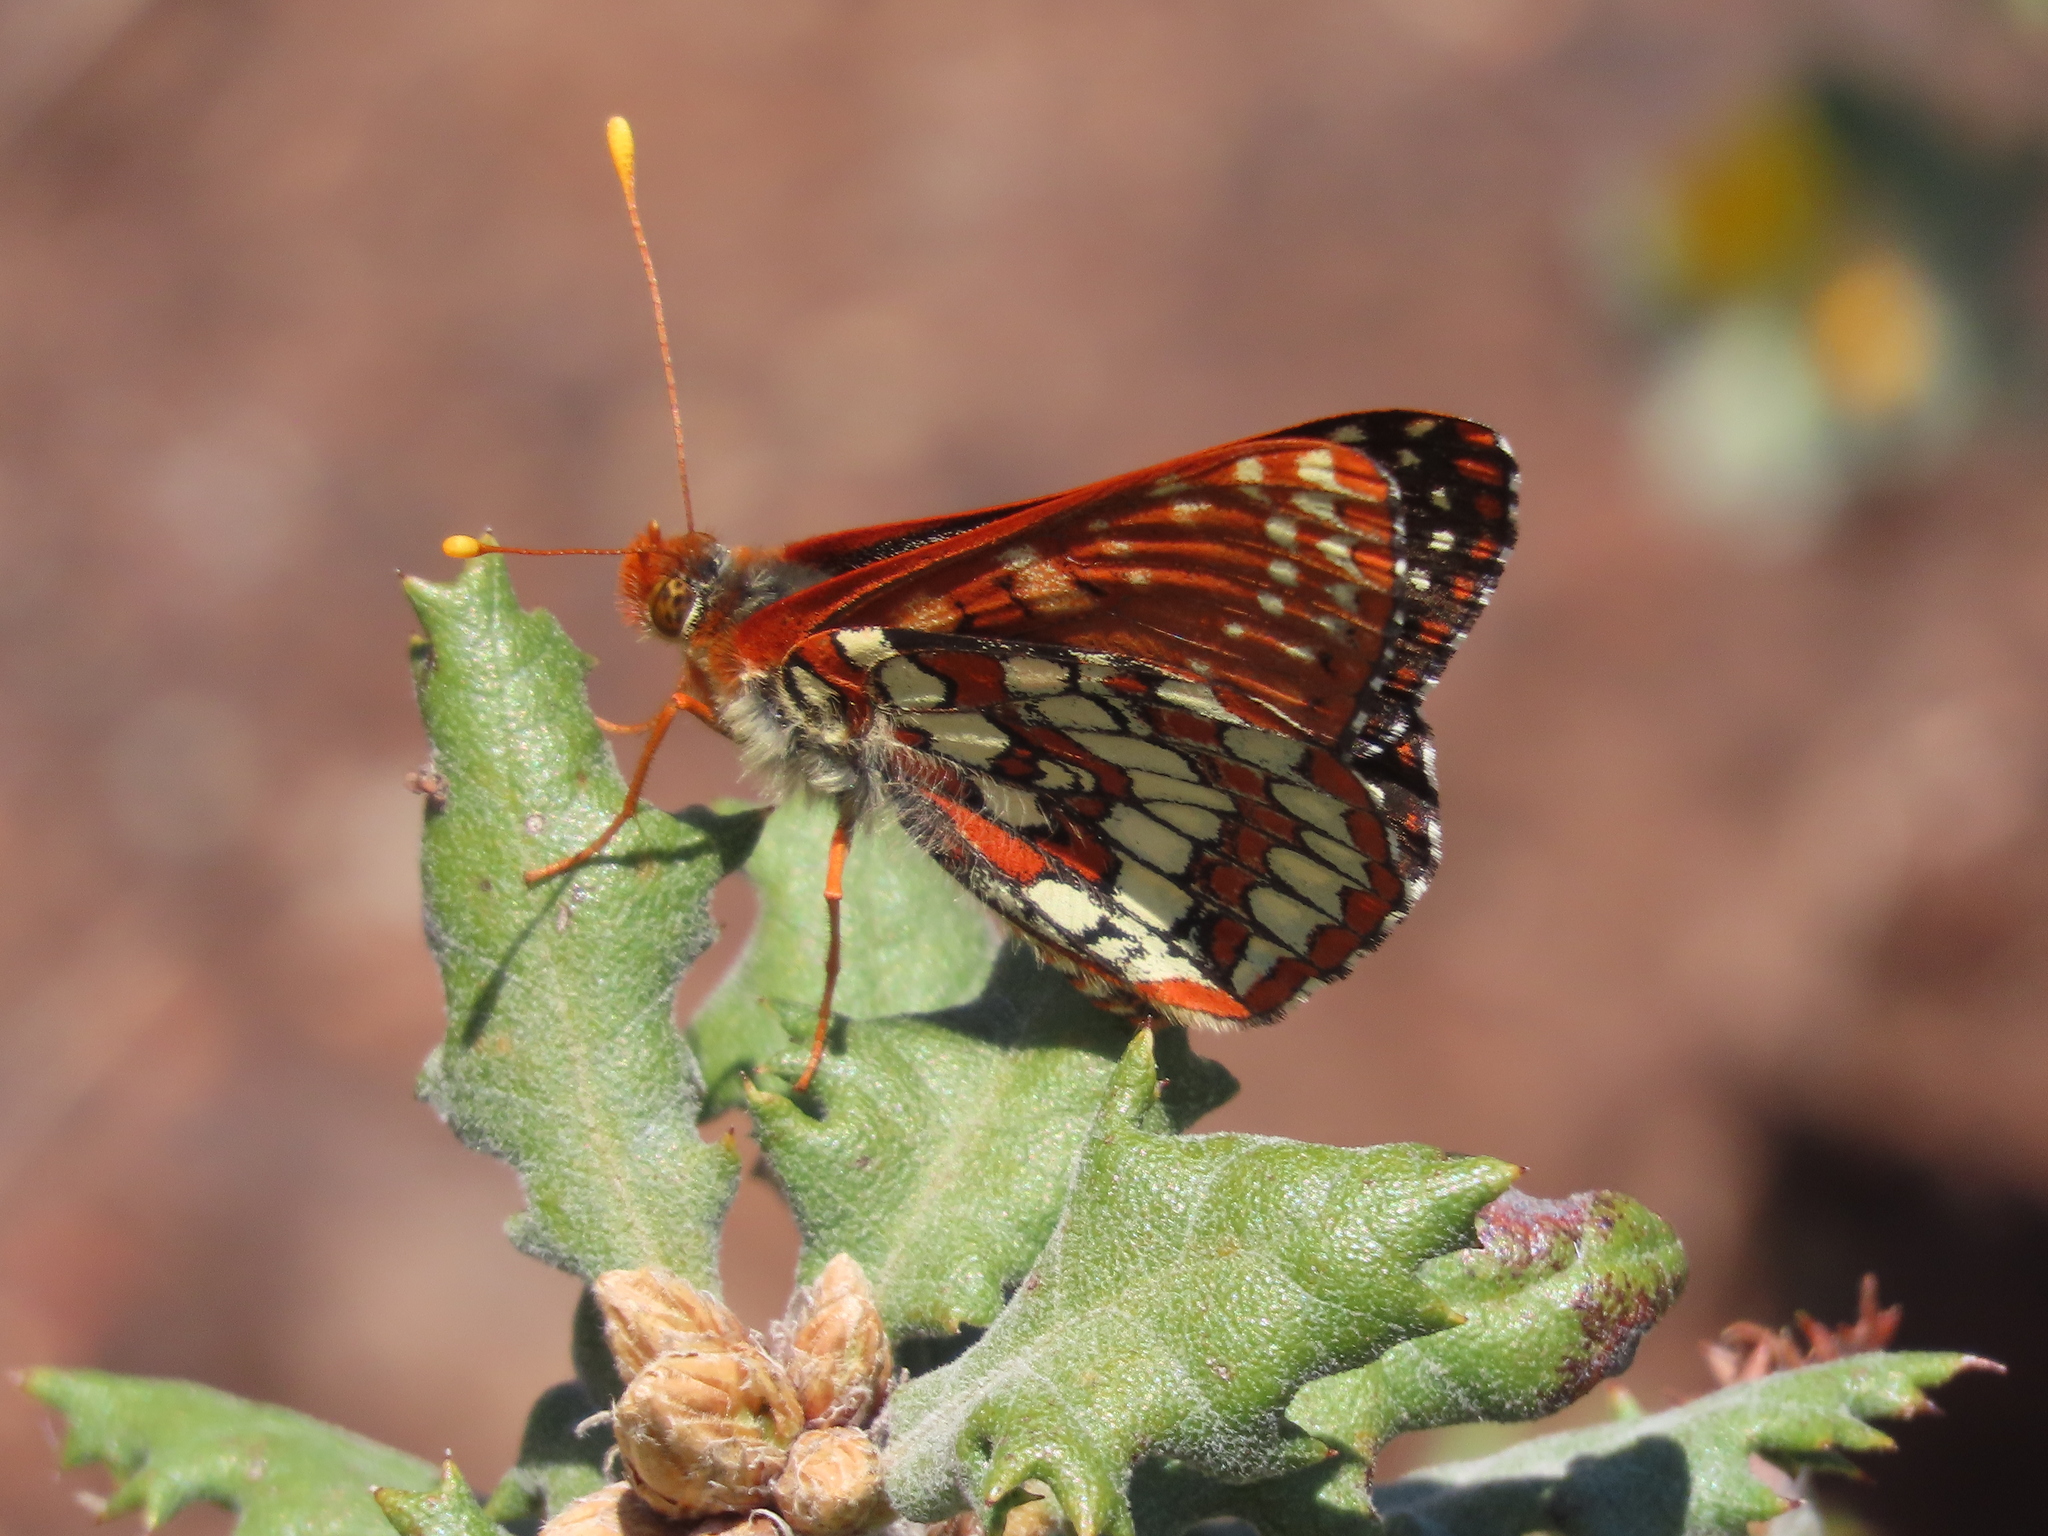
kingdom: Animalia
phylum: Arthropoda
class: Insecta
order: Lepidoptera
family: Nymphalidae
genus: Occidryas
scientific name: Occidryas chalcedona
